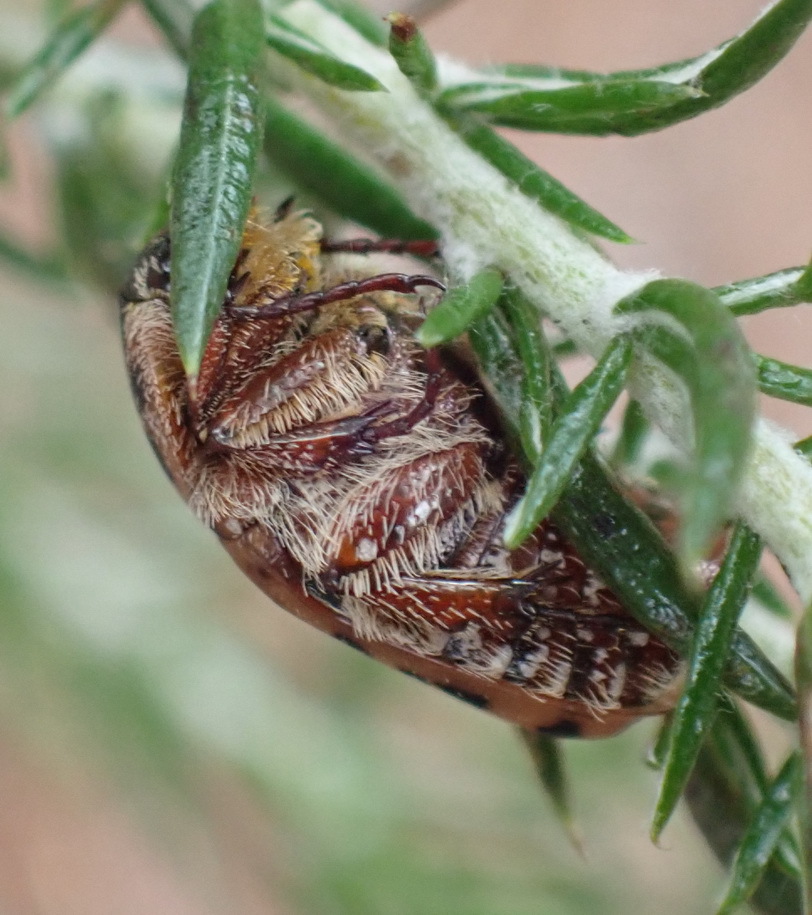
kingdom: Animalia
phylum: Arthropoda
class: Insecta
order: Coleoptera
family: Scarabaeidae
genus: Atrichelaphinis
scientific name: Atrichelaphinis tigrina
